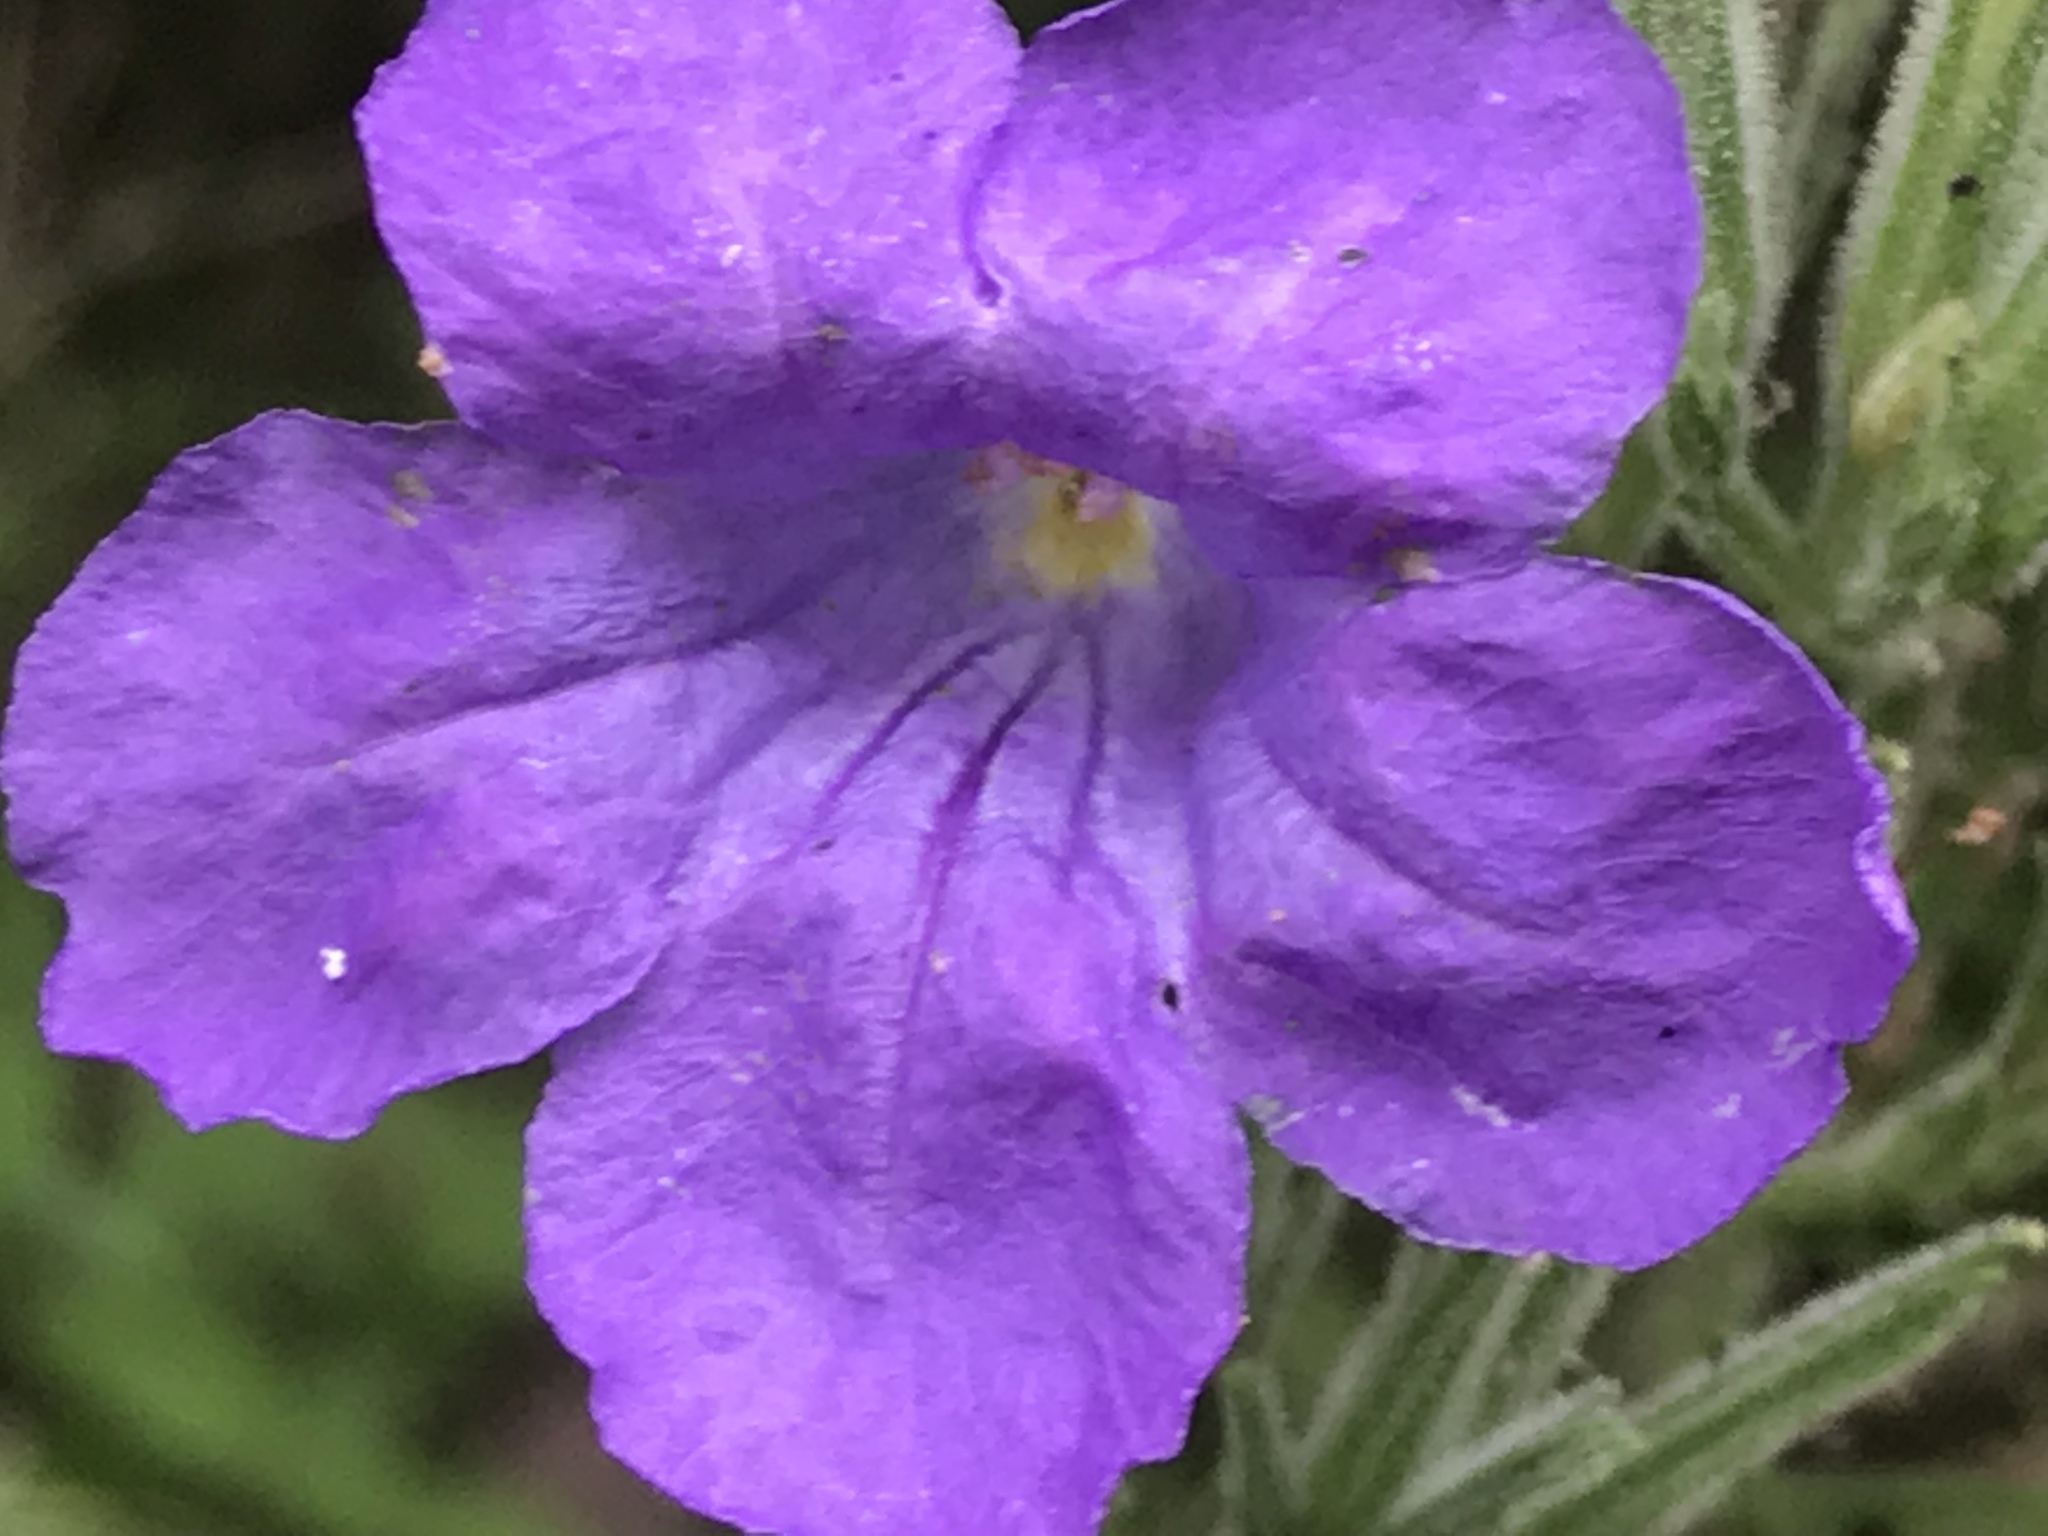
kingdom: Plantae
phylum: Tracheophyta
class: Magnoliopsida
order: Lamiales
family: Acanthaceae
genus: Ruellia
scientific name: Ruellia ciliatiflora
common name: Hairyflower wild petunia
